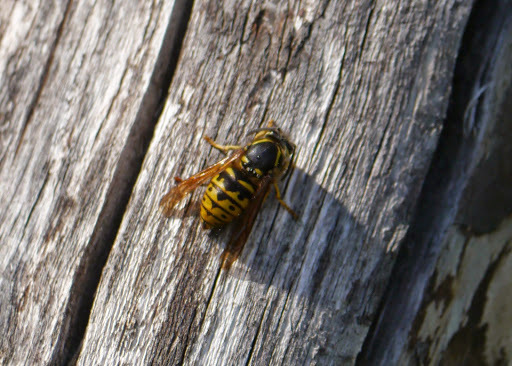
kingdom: Animalia
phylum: Arthropoda
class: Insecta
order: Hymenoptera
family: Vespidae
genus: Dolichovespula
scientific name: Dolichovespula arenaria
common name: Aerial yellowjacket
